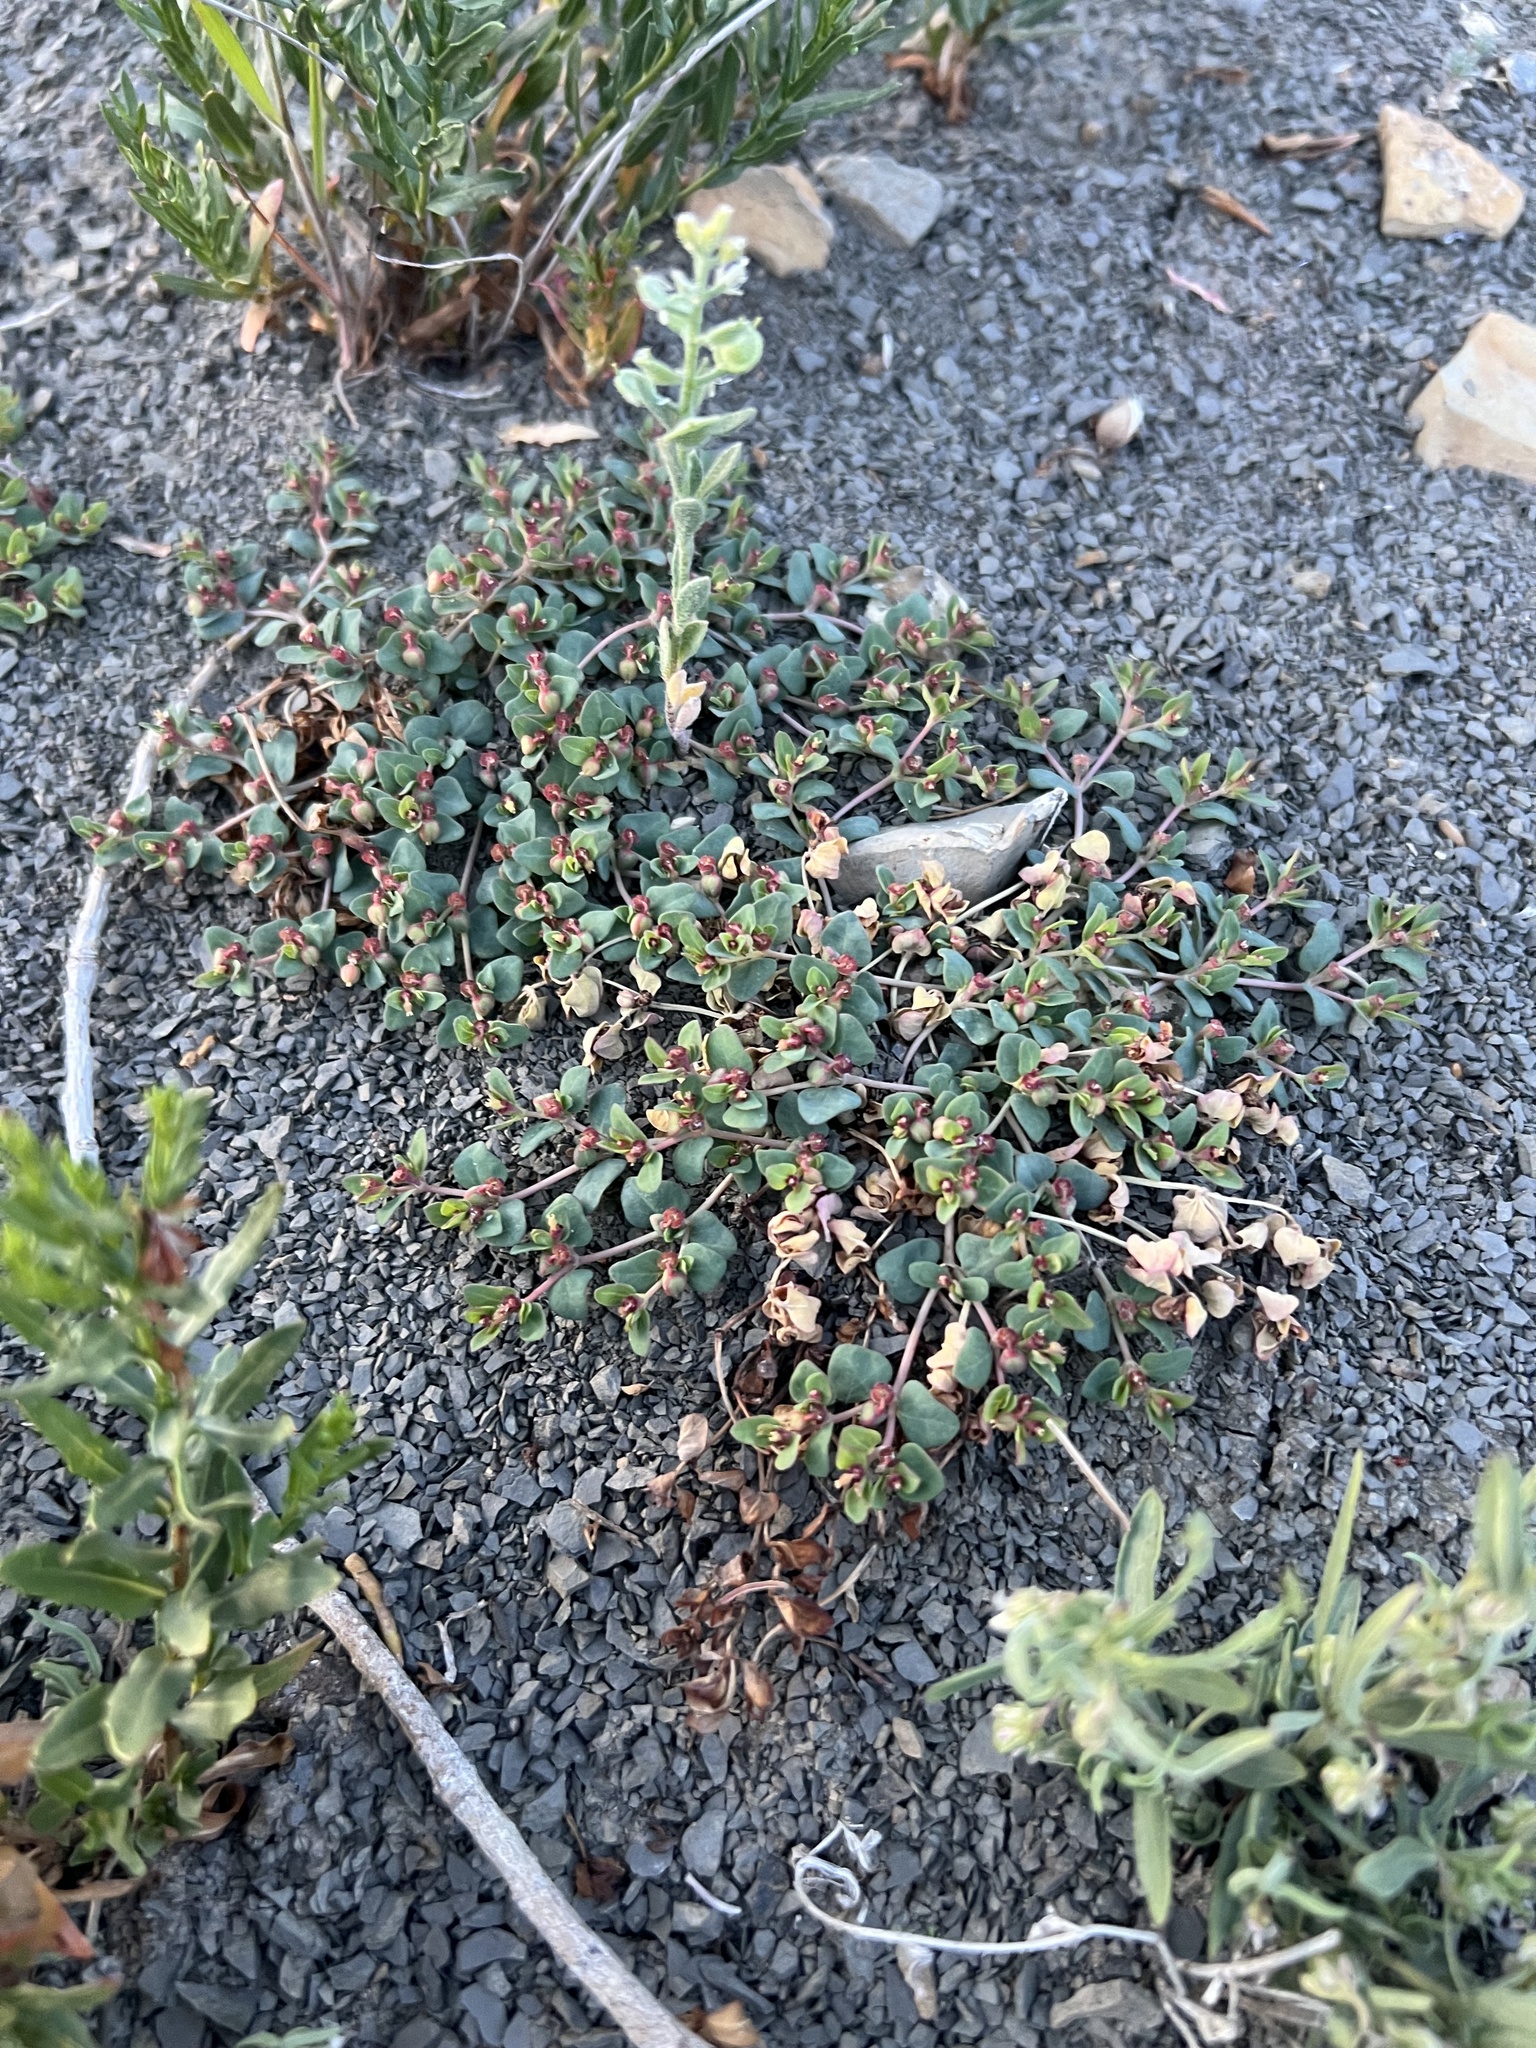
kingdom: Plantae
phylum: Tracheophyta
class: Magnoliopsida
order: Malpighiales
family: Euphorbiaceae
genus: Euphorbia
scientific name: Euphorbia fendleri
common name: Fendler's euphorbia
